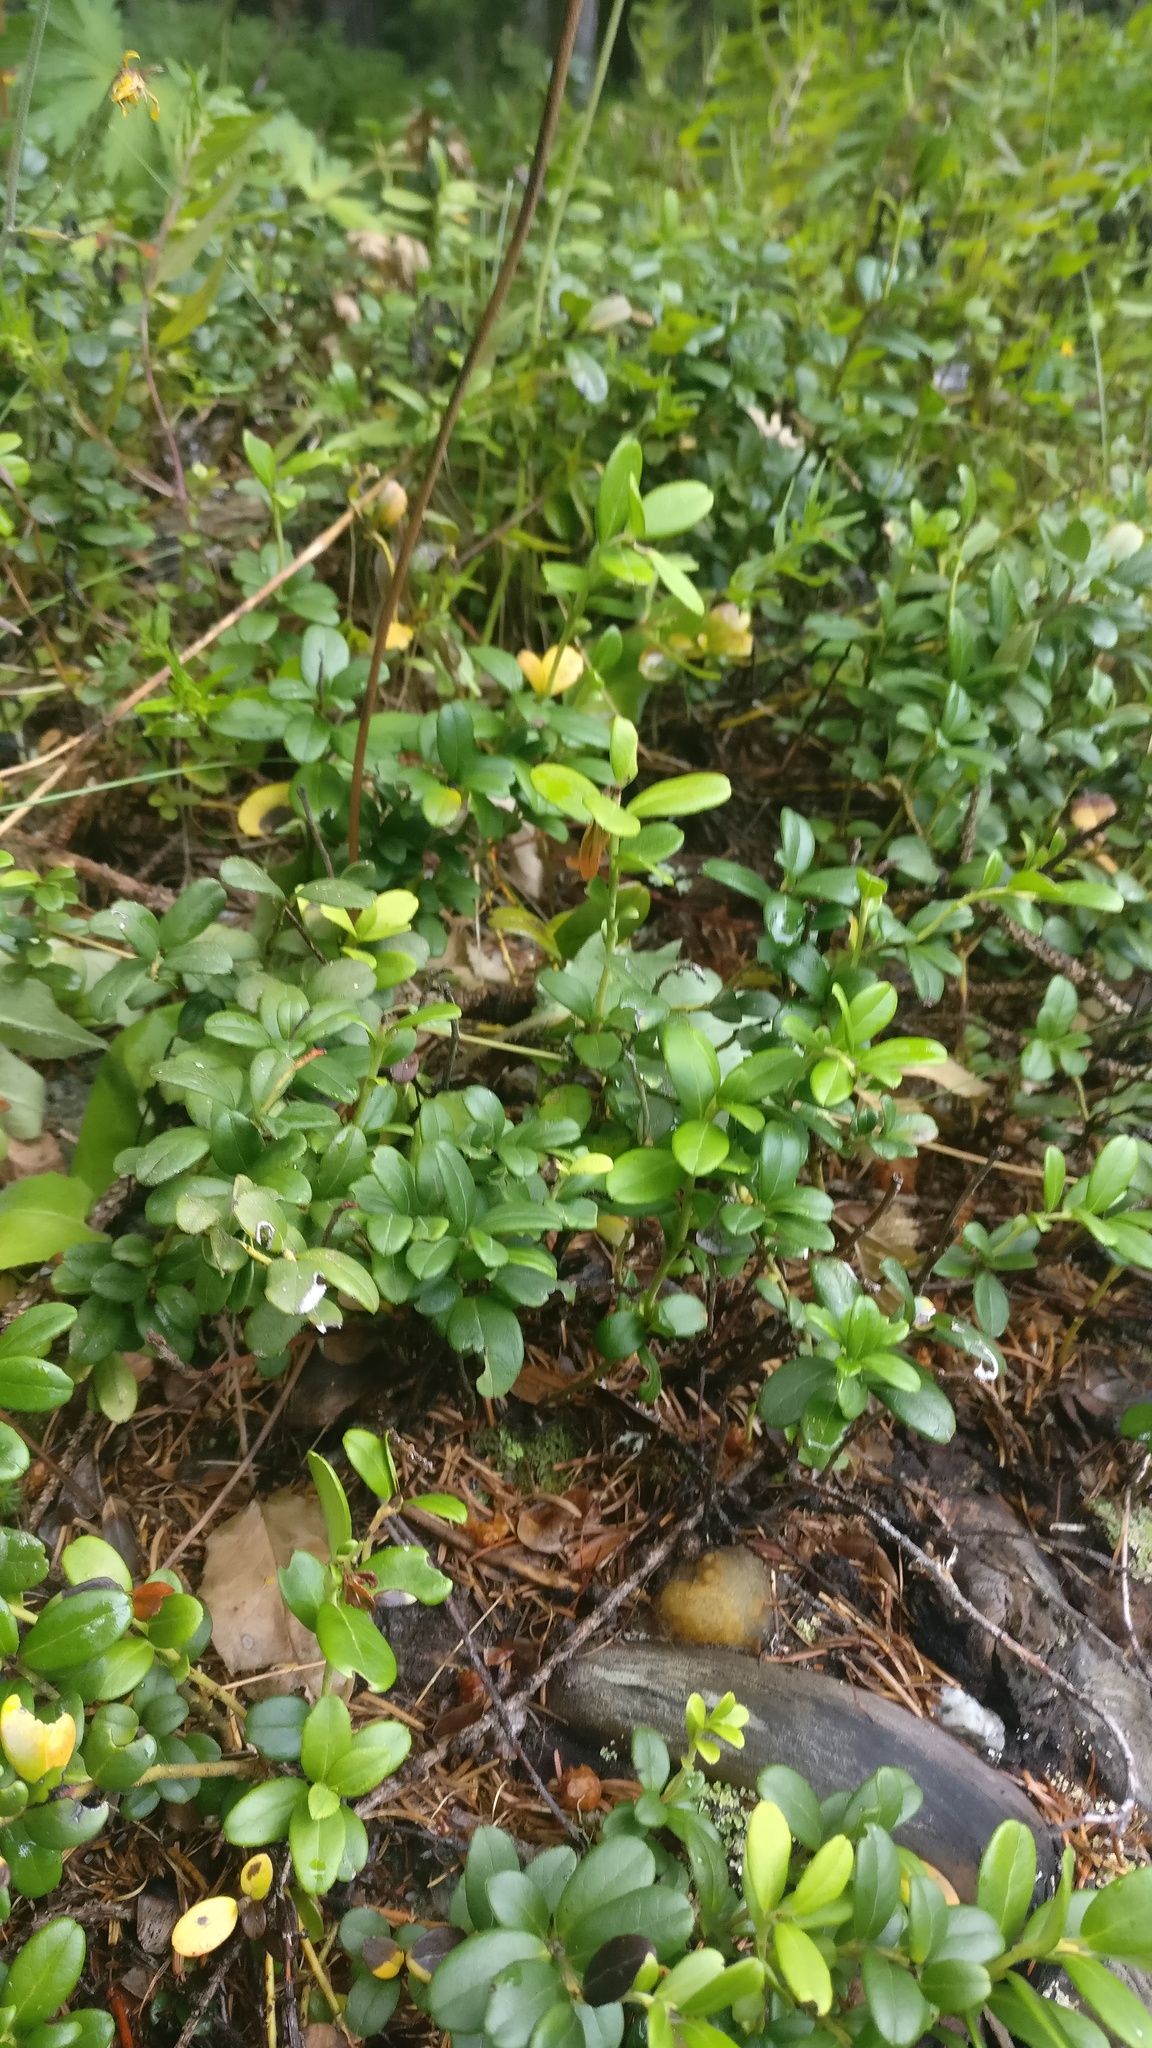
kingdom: Plantae
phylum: Tracheophyta
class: Magnoliopsida
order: Ericales
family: Ericaceae
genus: Vaccinium
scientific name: Vaccinium vitis-idaea
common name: Cowberry
